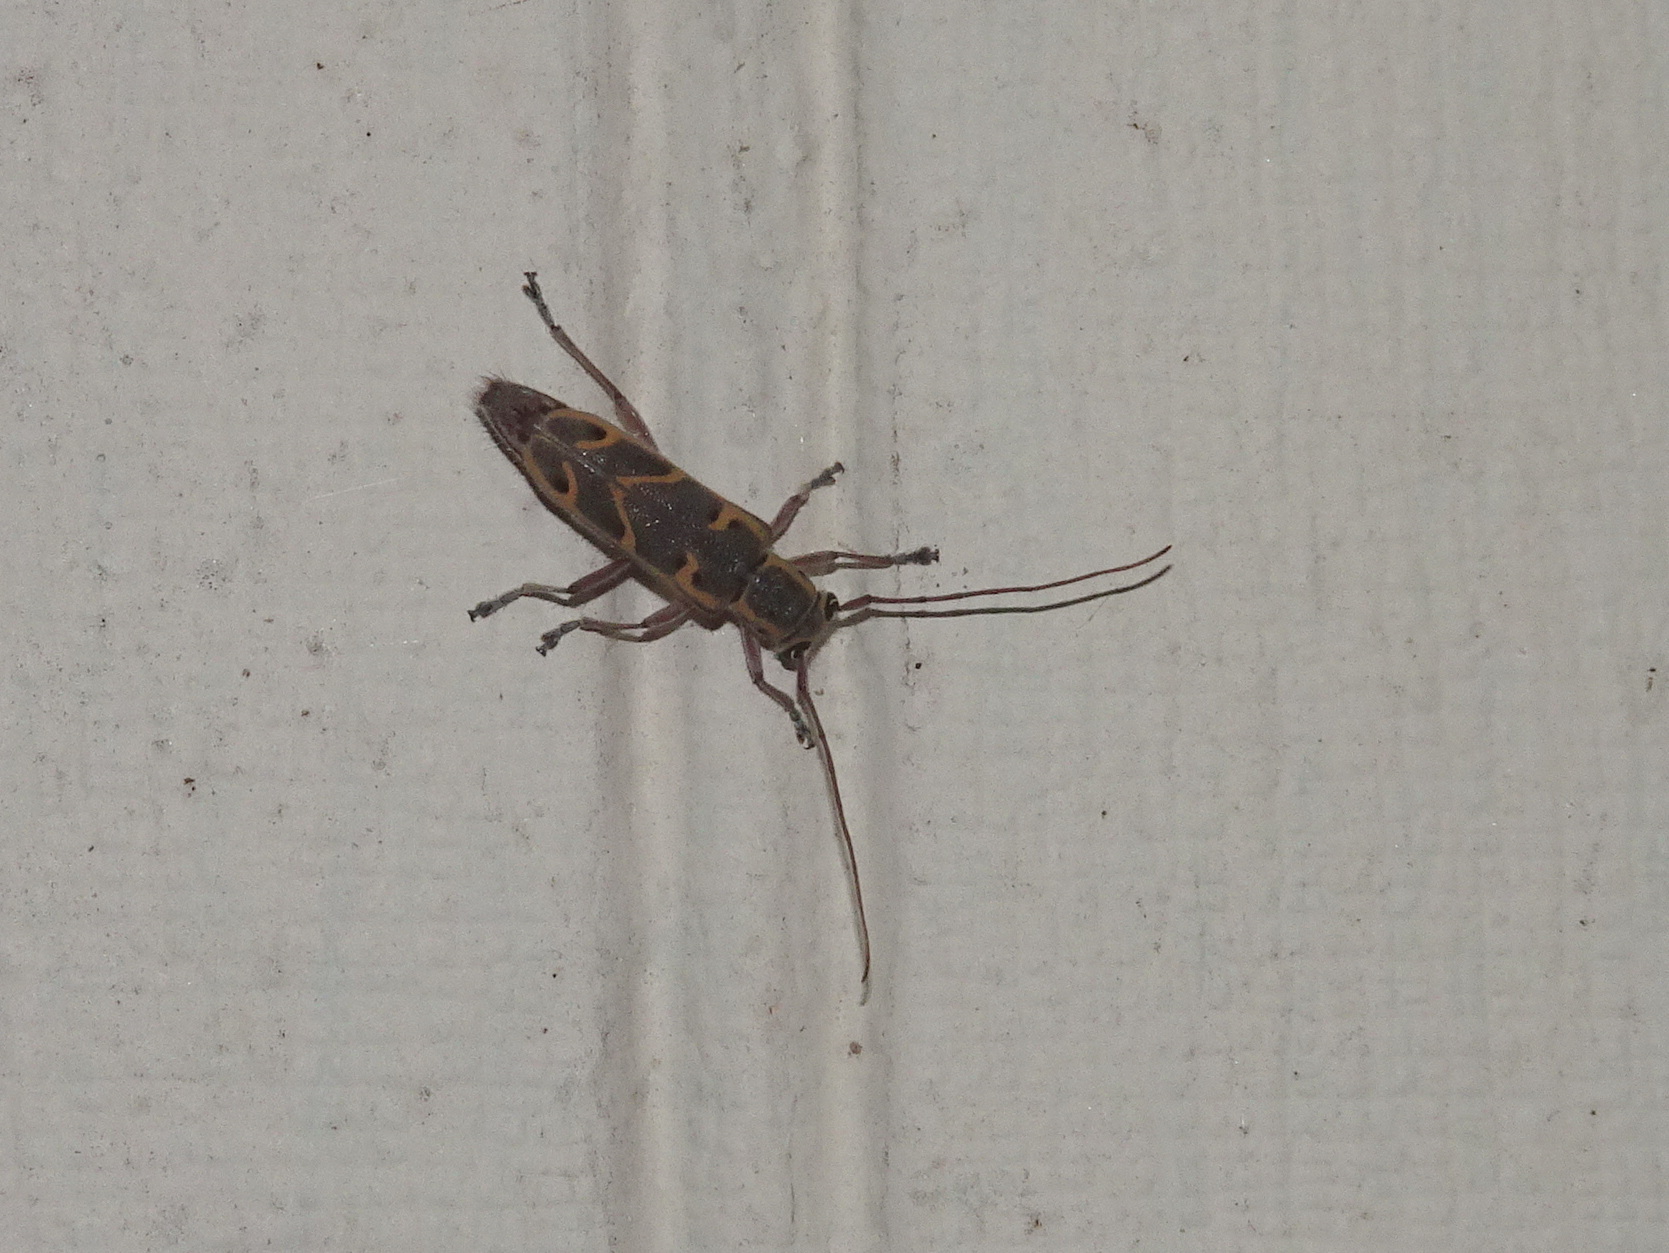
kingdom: Animalia
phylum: Arthropoda
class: Insecta
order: Coleoptera
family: Cerambycidae
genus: Saperda
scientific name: Saperda tridentata
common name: Elm borer
